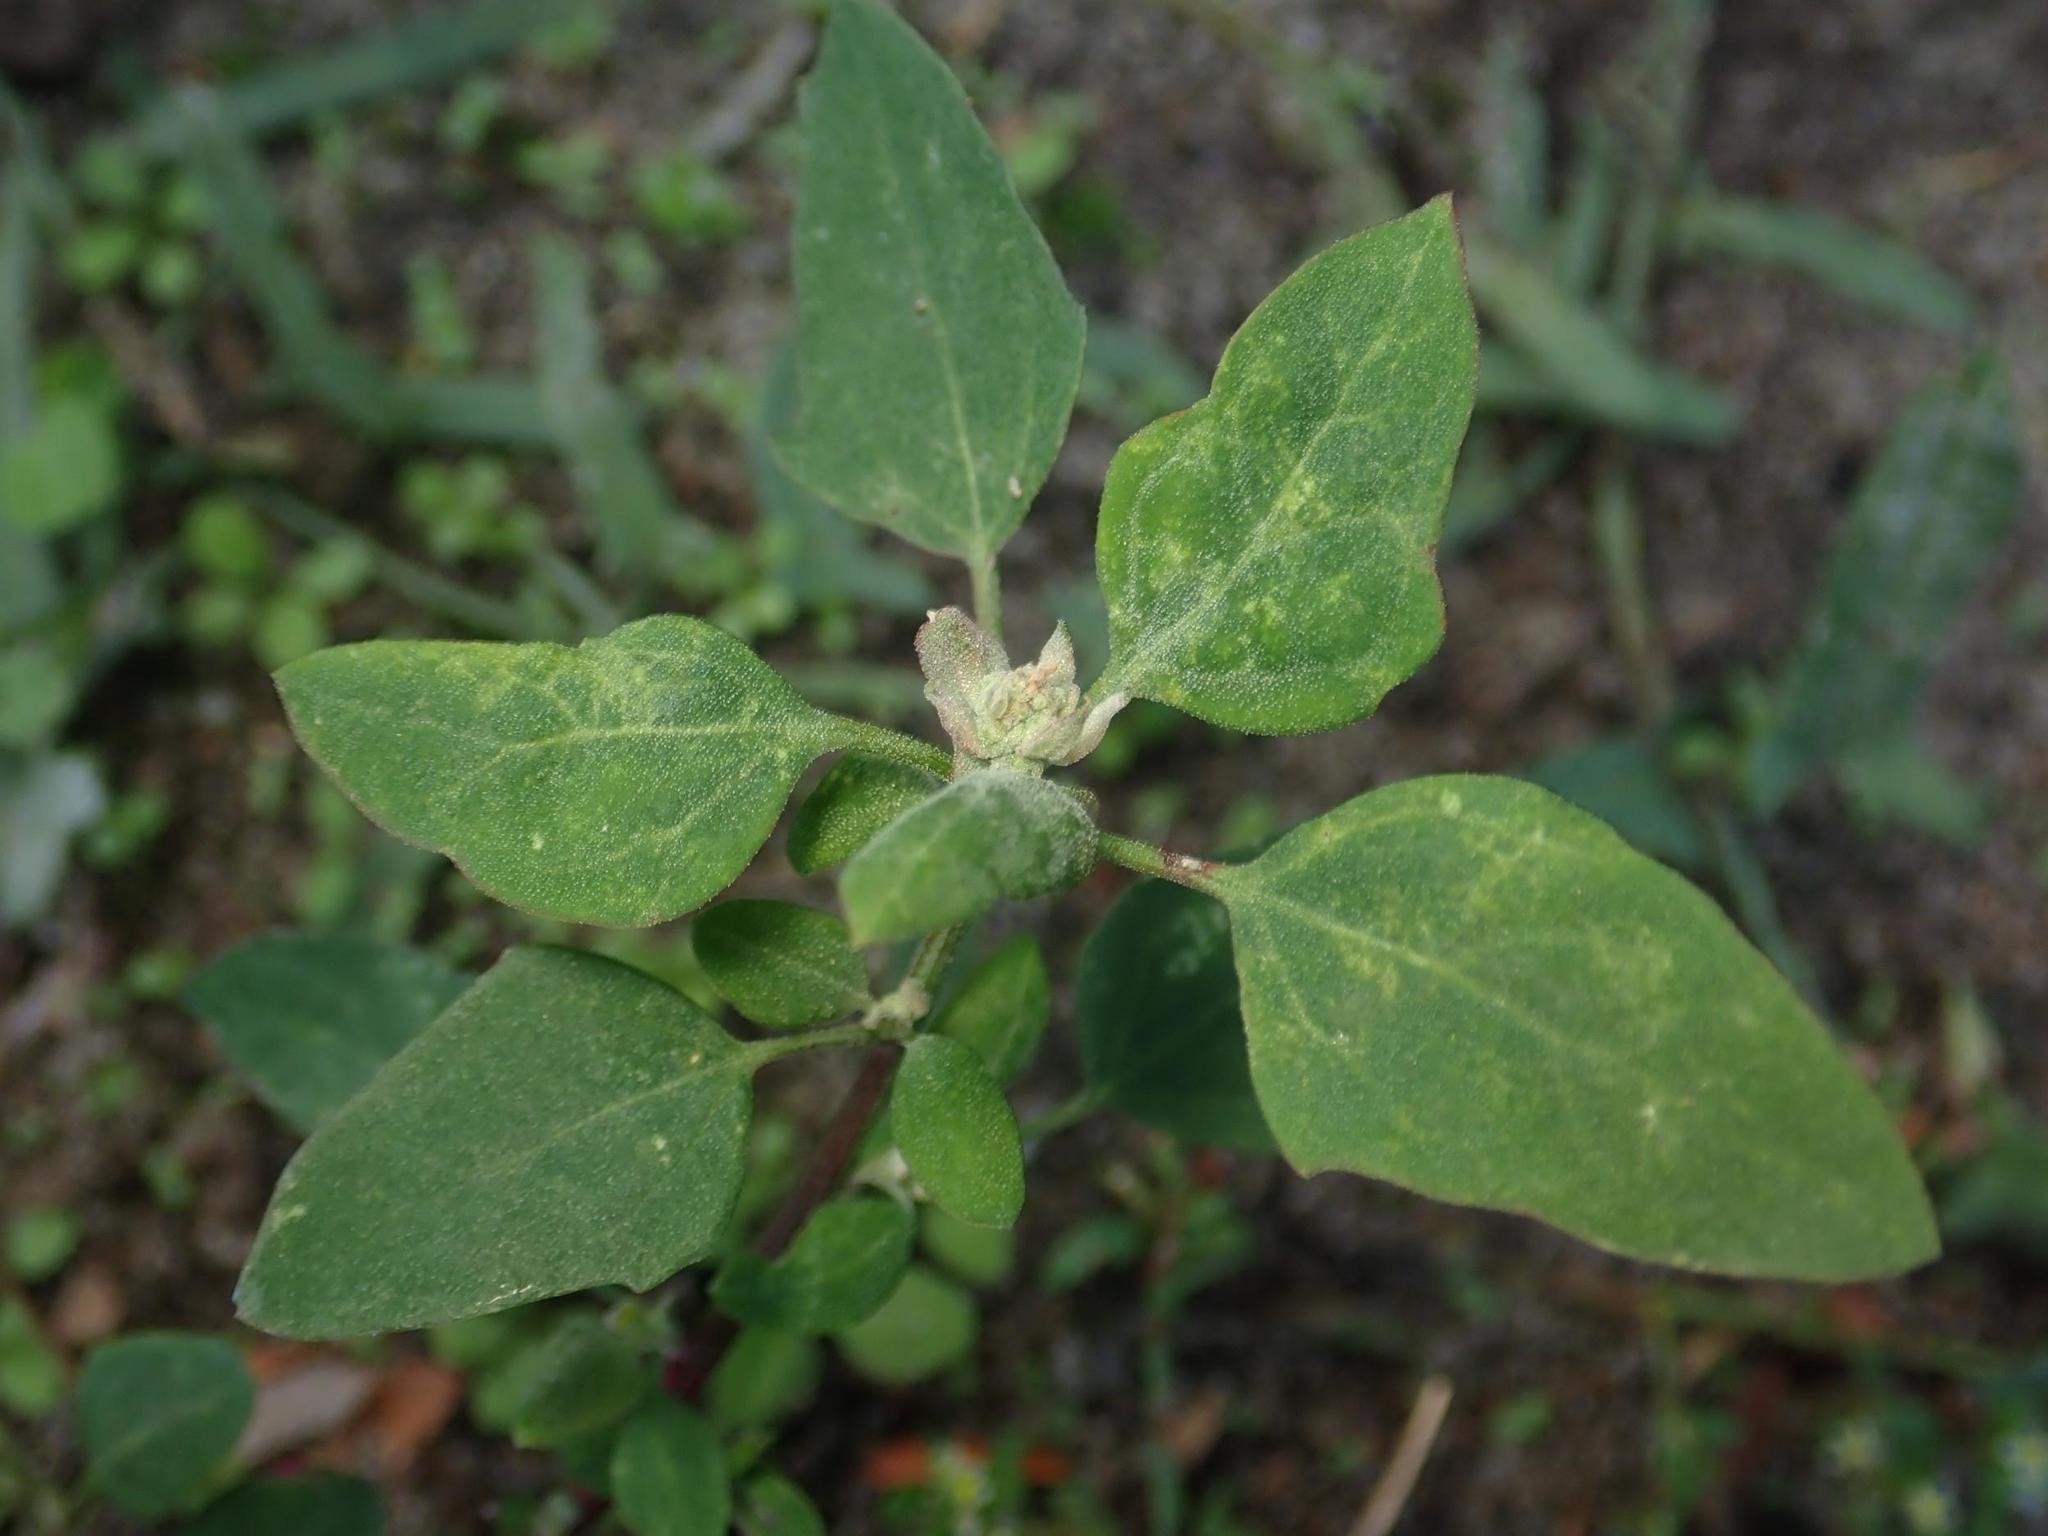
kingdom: Plantae
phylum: Tracheophyta
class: Magnoliopsida
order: Caryophyllales
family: Amaranthaceae
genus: Chenopodium
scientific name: Chenopodium album
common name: Fat-hen
